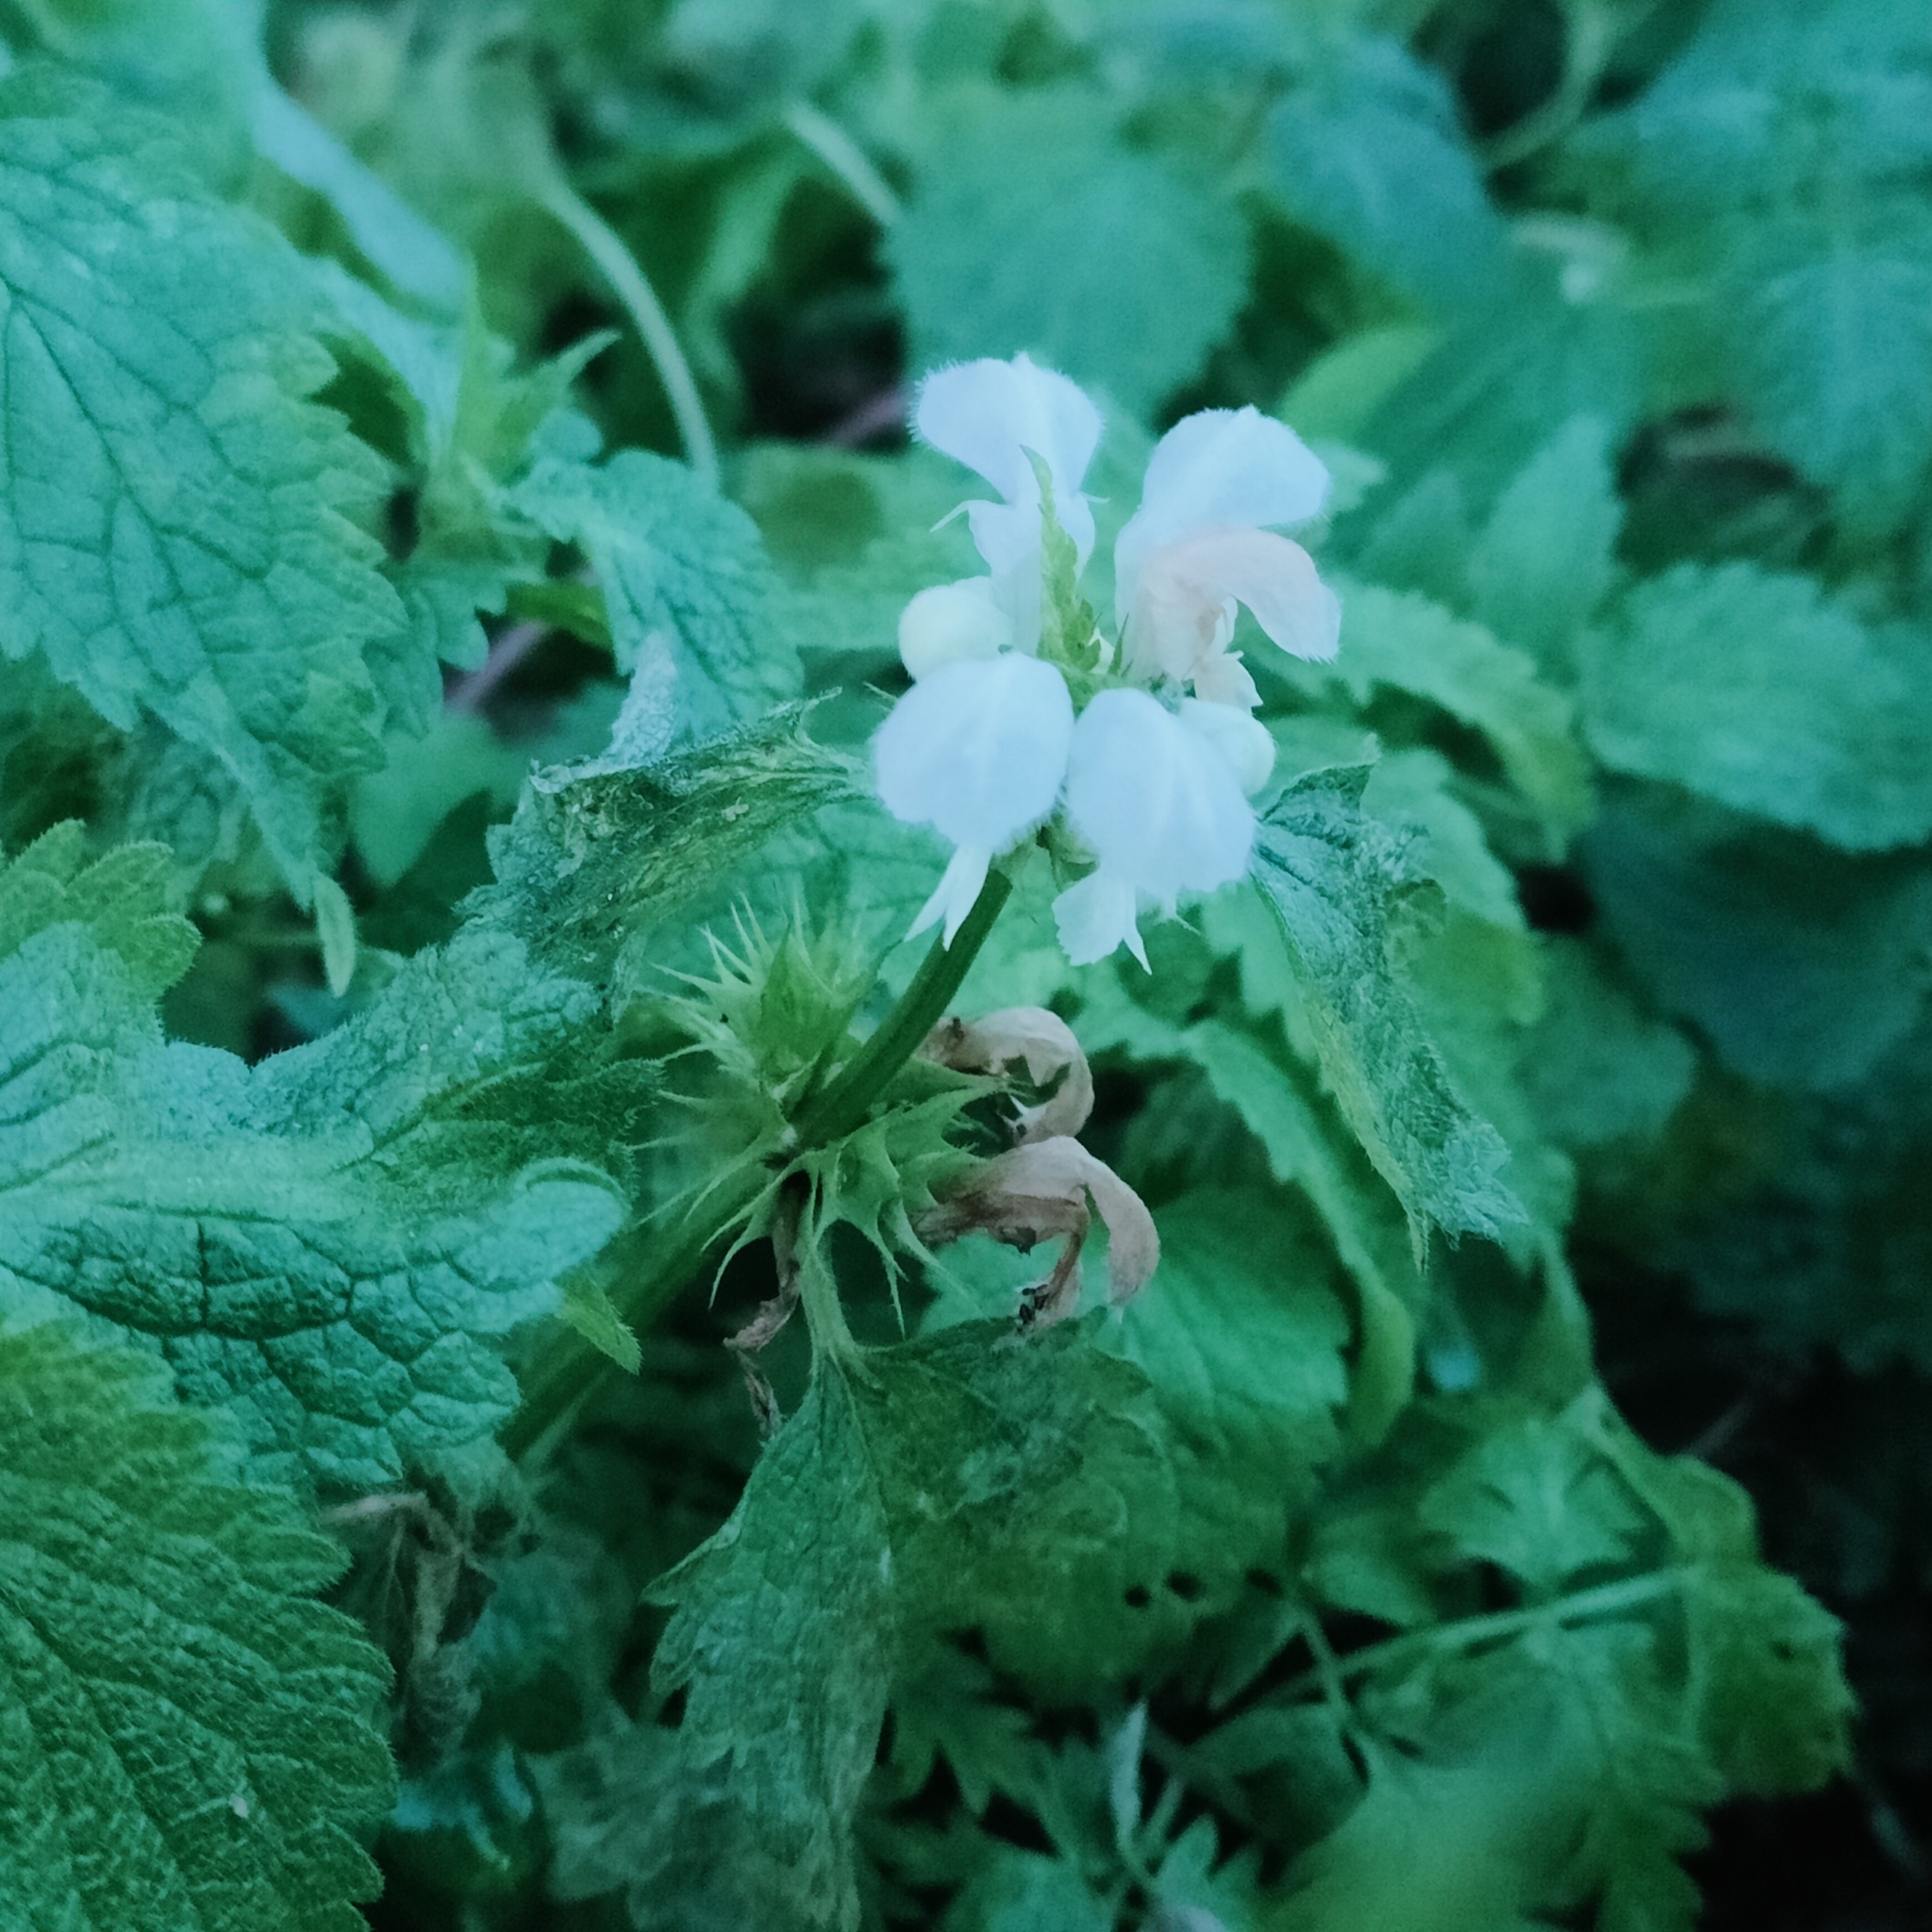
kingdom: Plantae
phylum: Tracheophyta
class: Magnoliopsida
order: Lamiales
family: Lamiaceae
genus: Lamium
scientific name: Lamium album
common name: White dead-nettle
